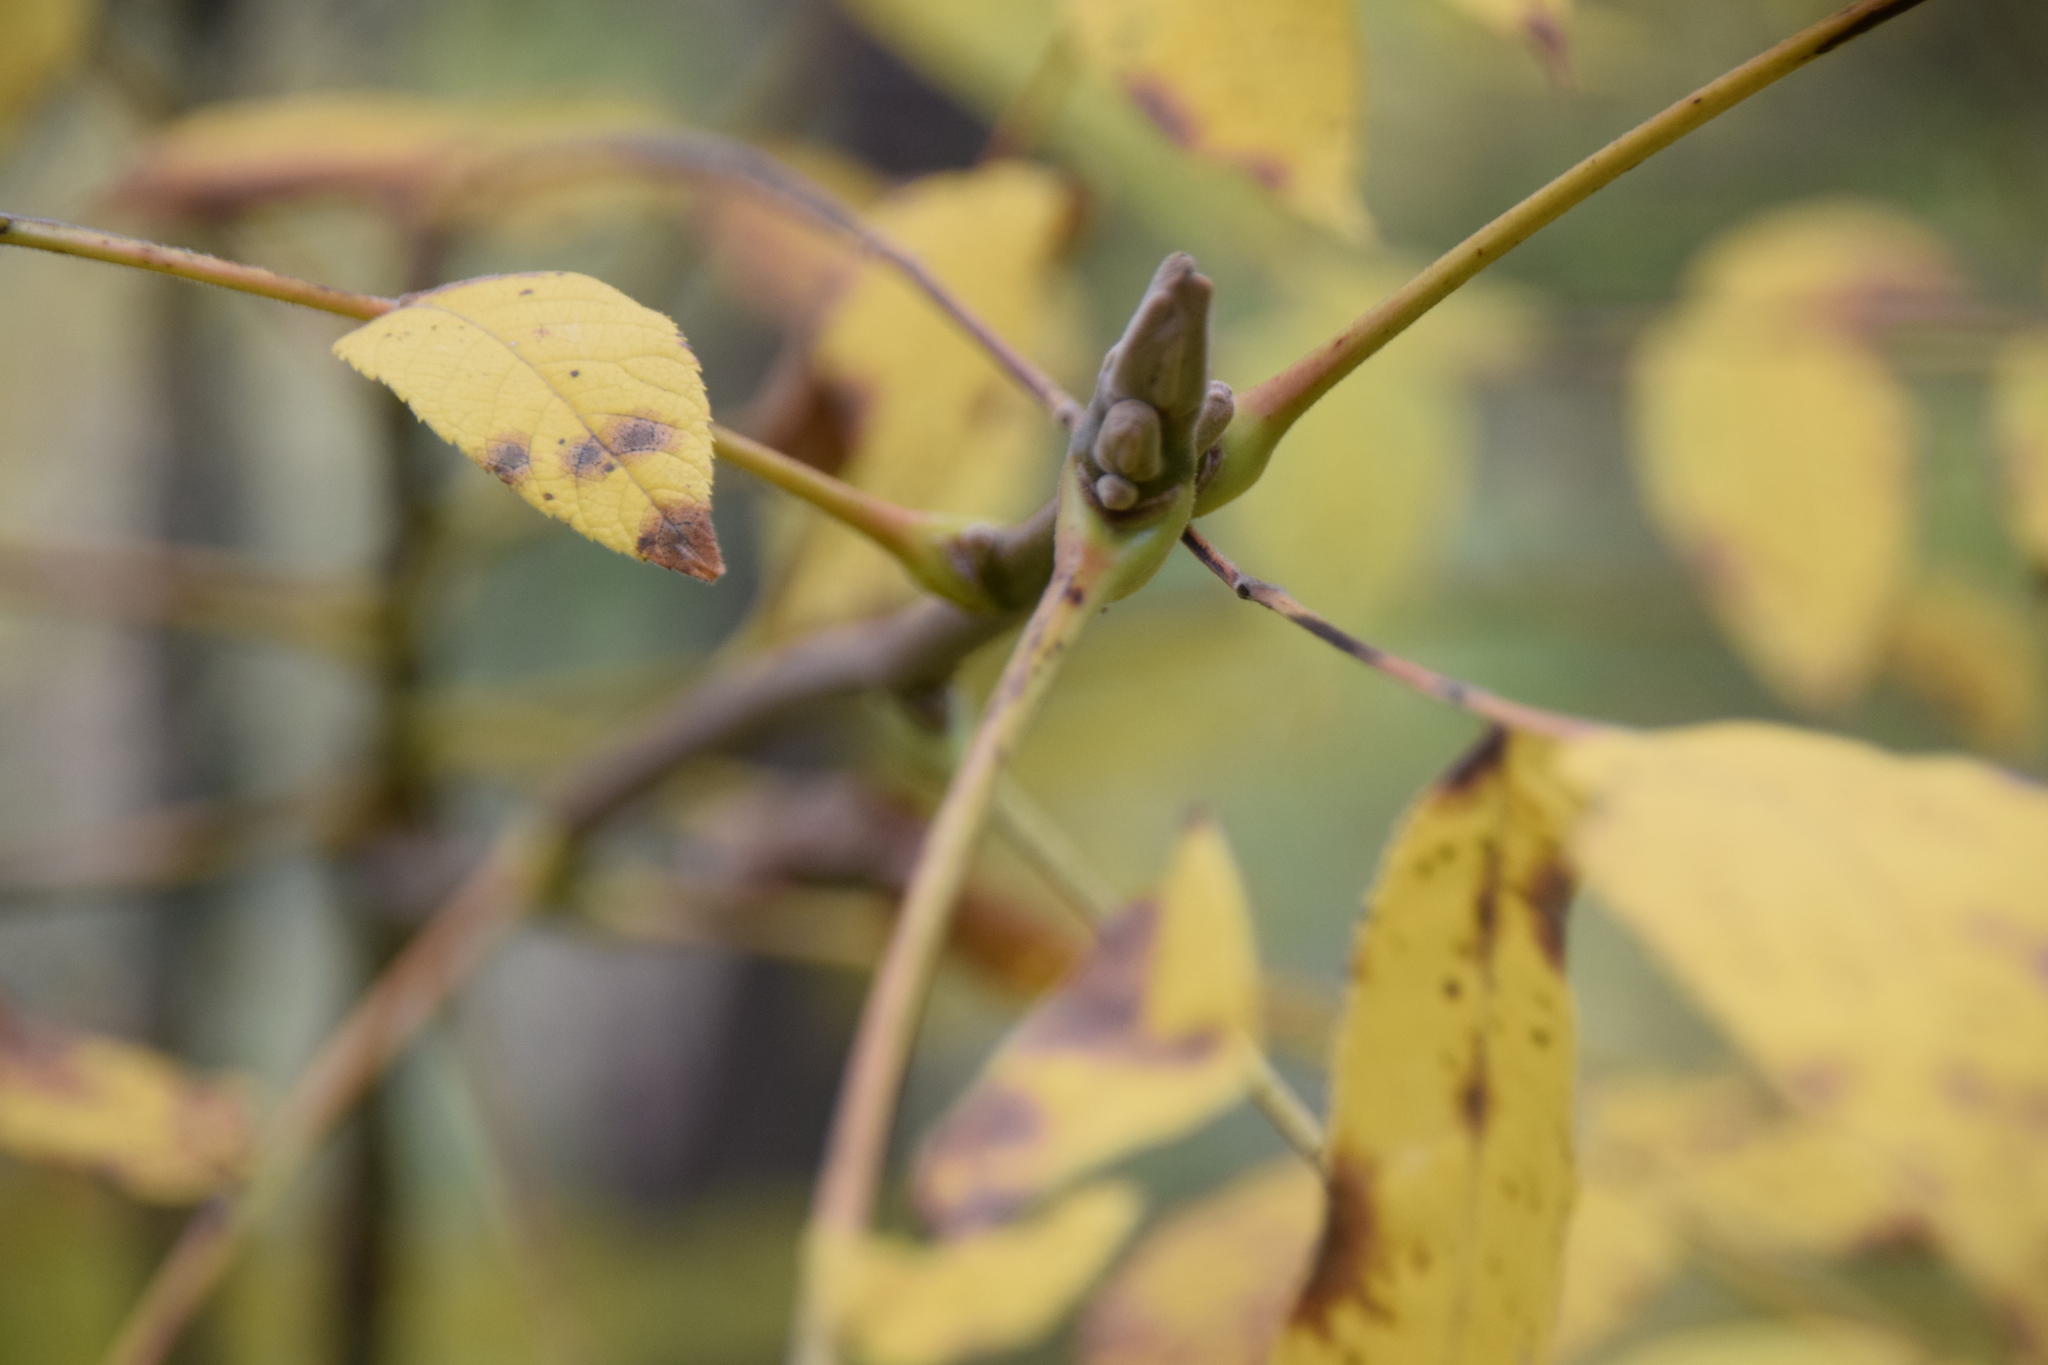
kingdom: Plantae
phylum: Tracheophyta
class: Magnoliopsida
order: Fagales
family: Juglandaceae
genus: Juglans
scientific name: Juglans cinerea
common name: Butternut
